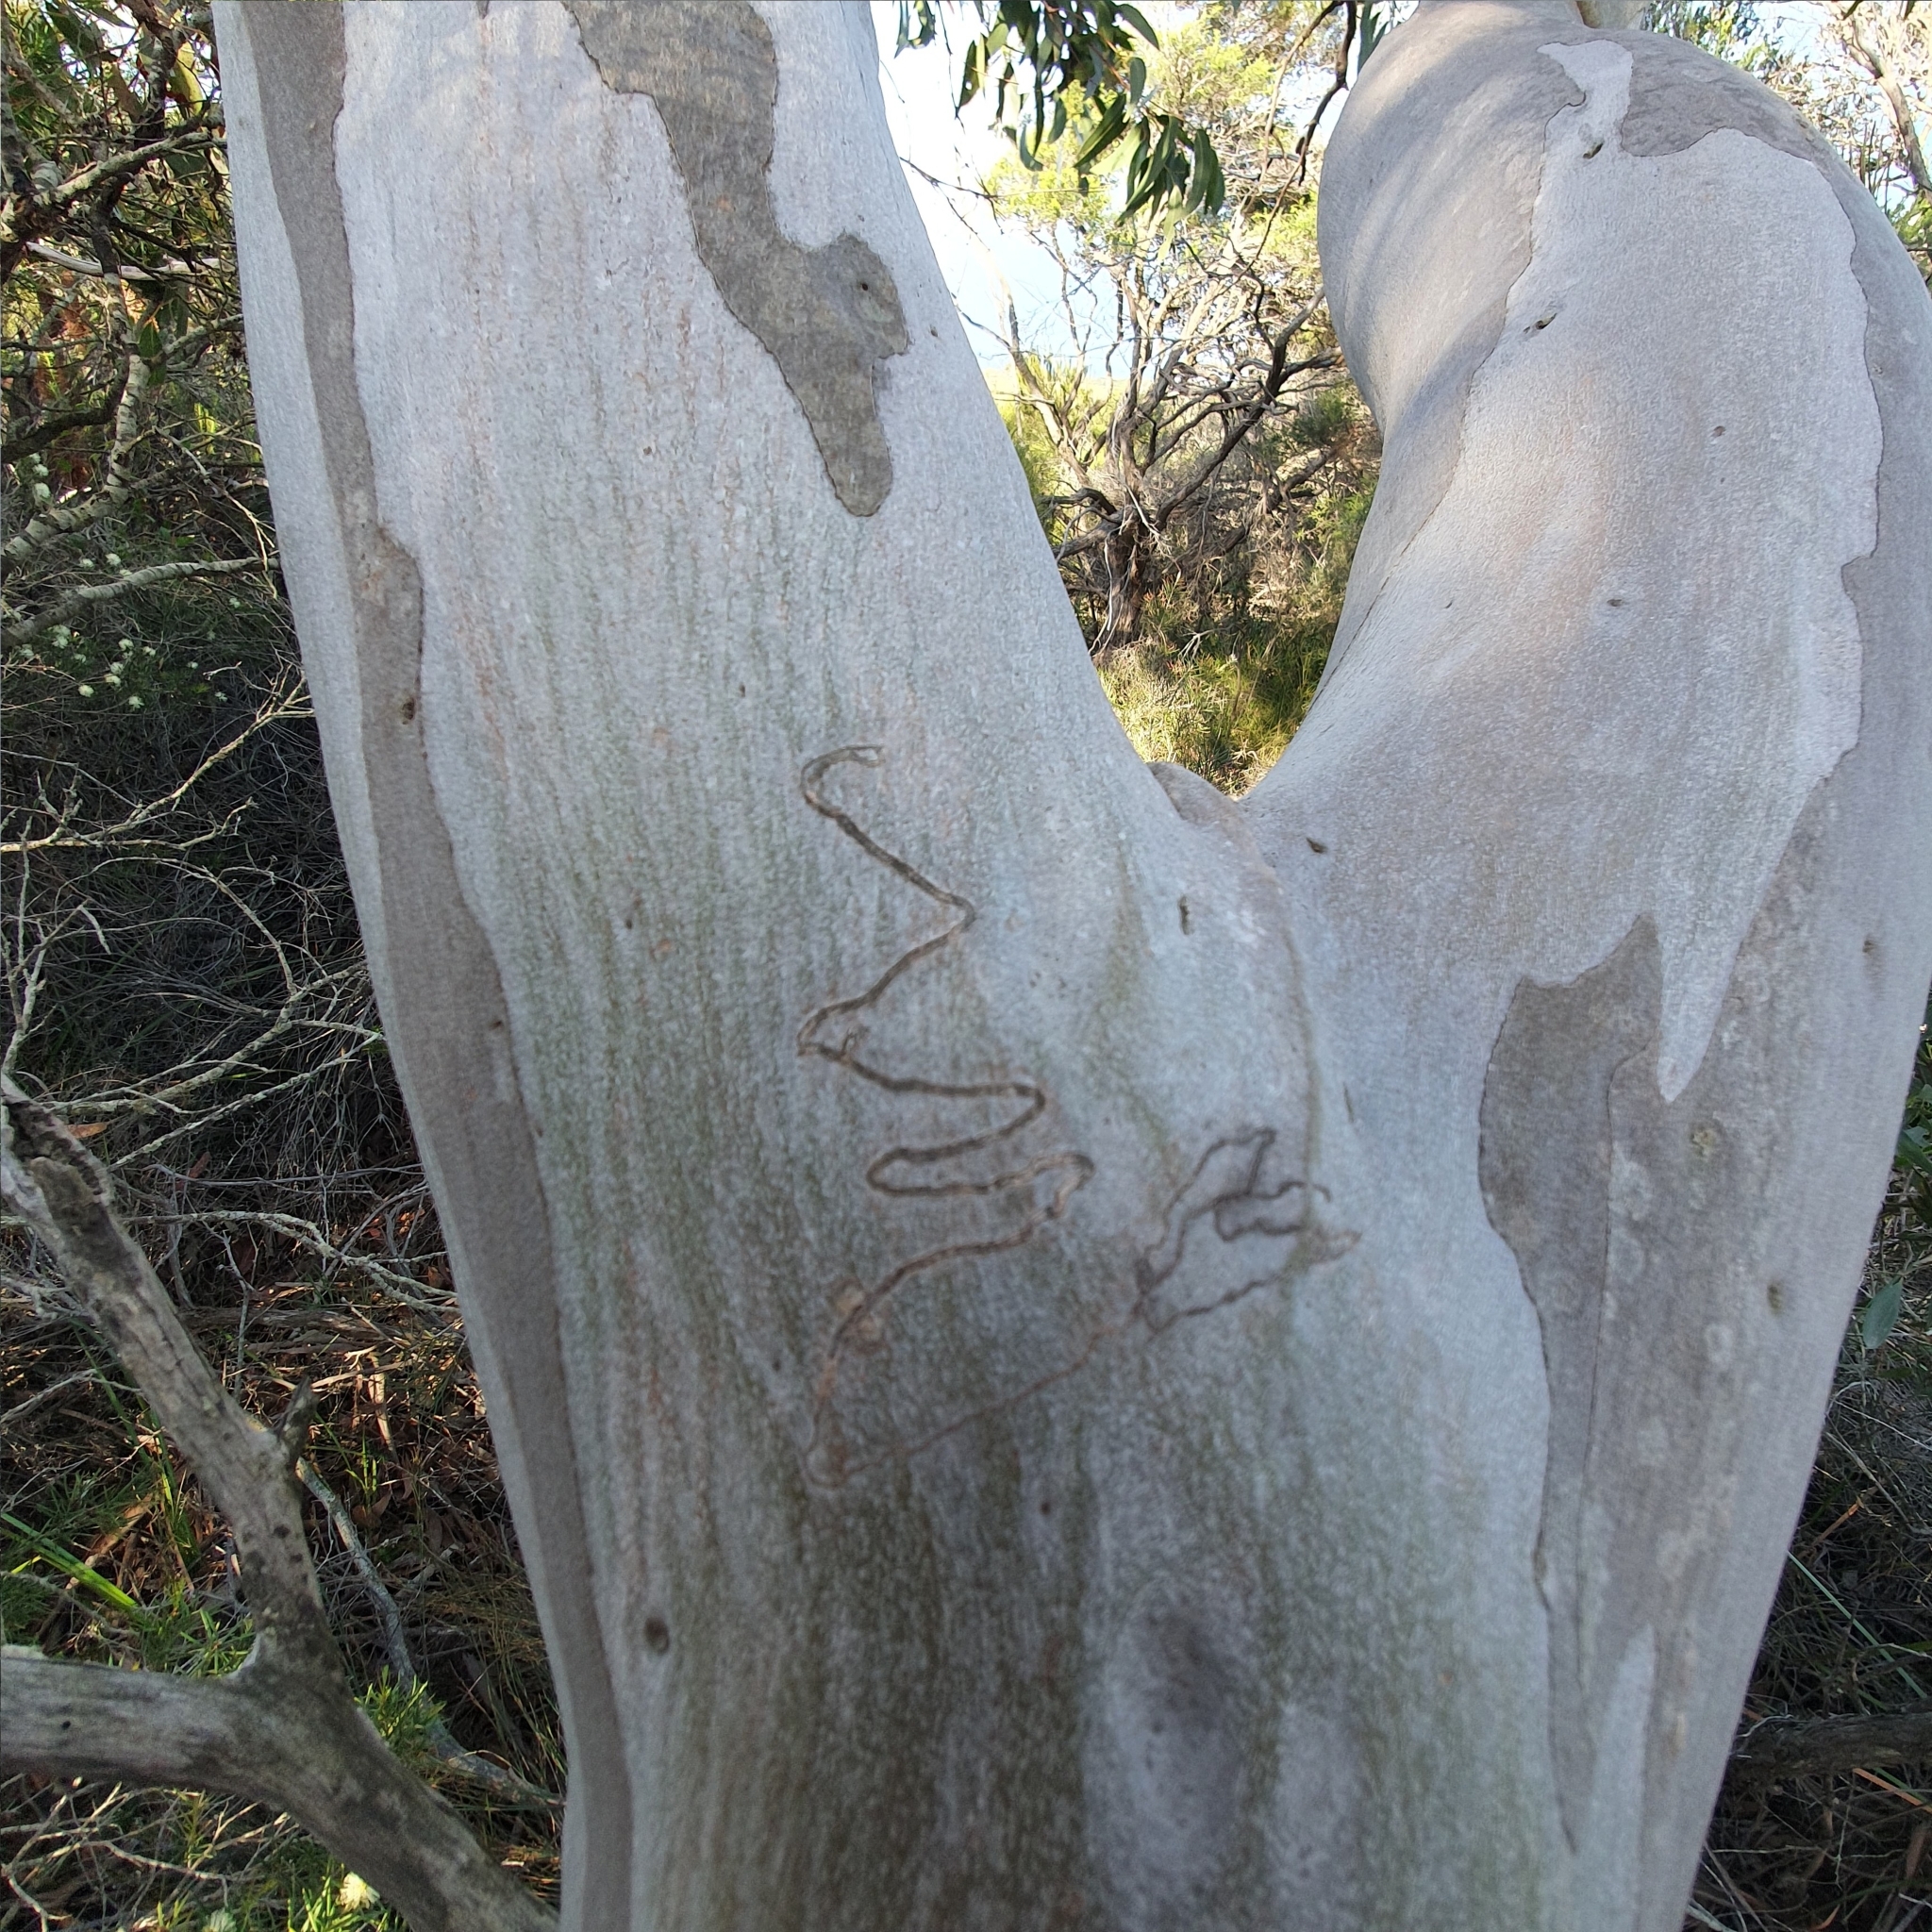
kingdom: Plantae
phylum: Tracheophyta
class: Magnoliopsida
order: Myrtales
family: Myrtaceae
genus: Eucalyptus
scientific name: Eucalyptus haemastoma
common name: Scribbly-gum
